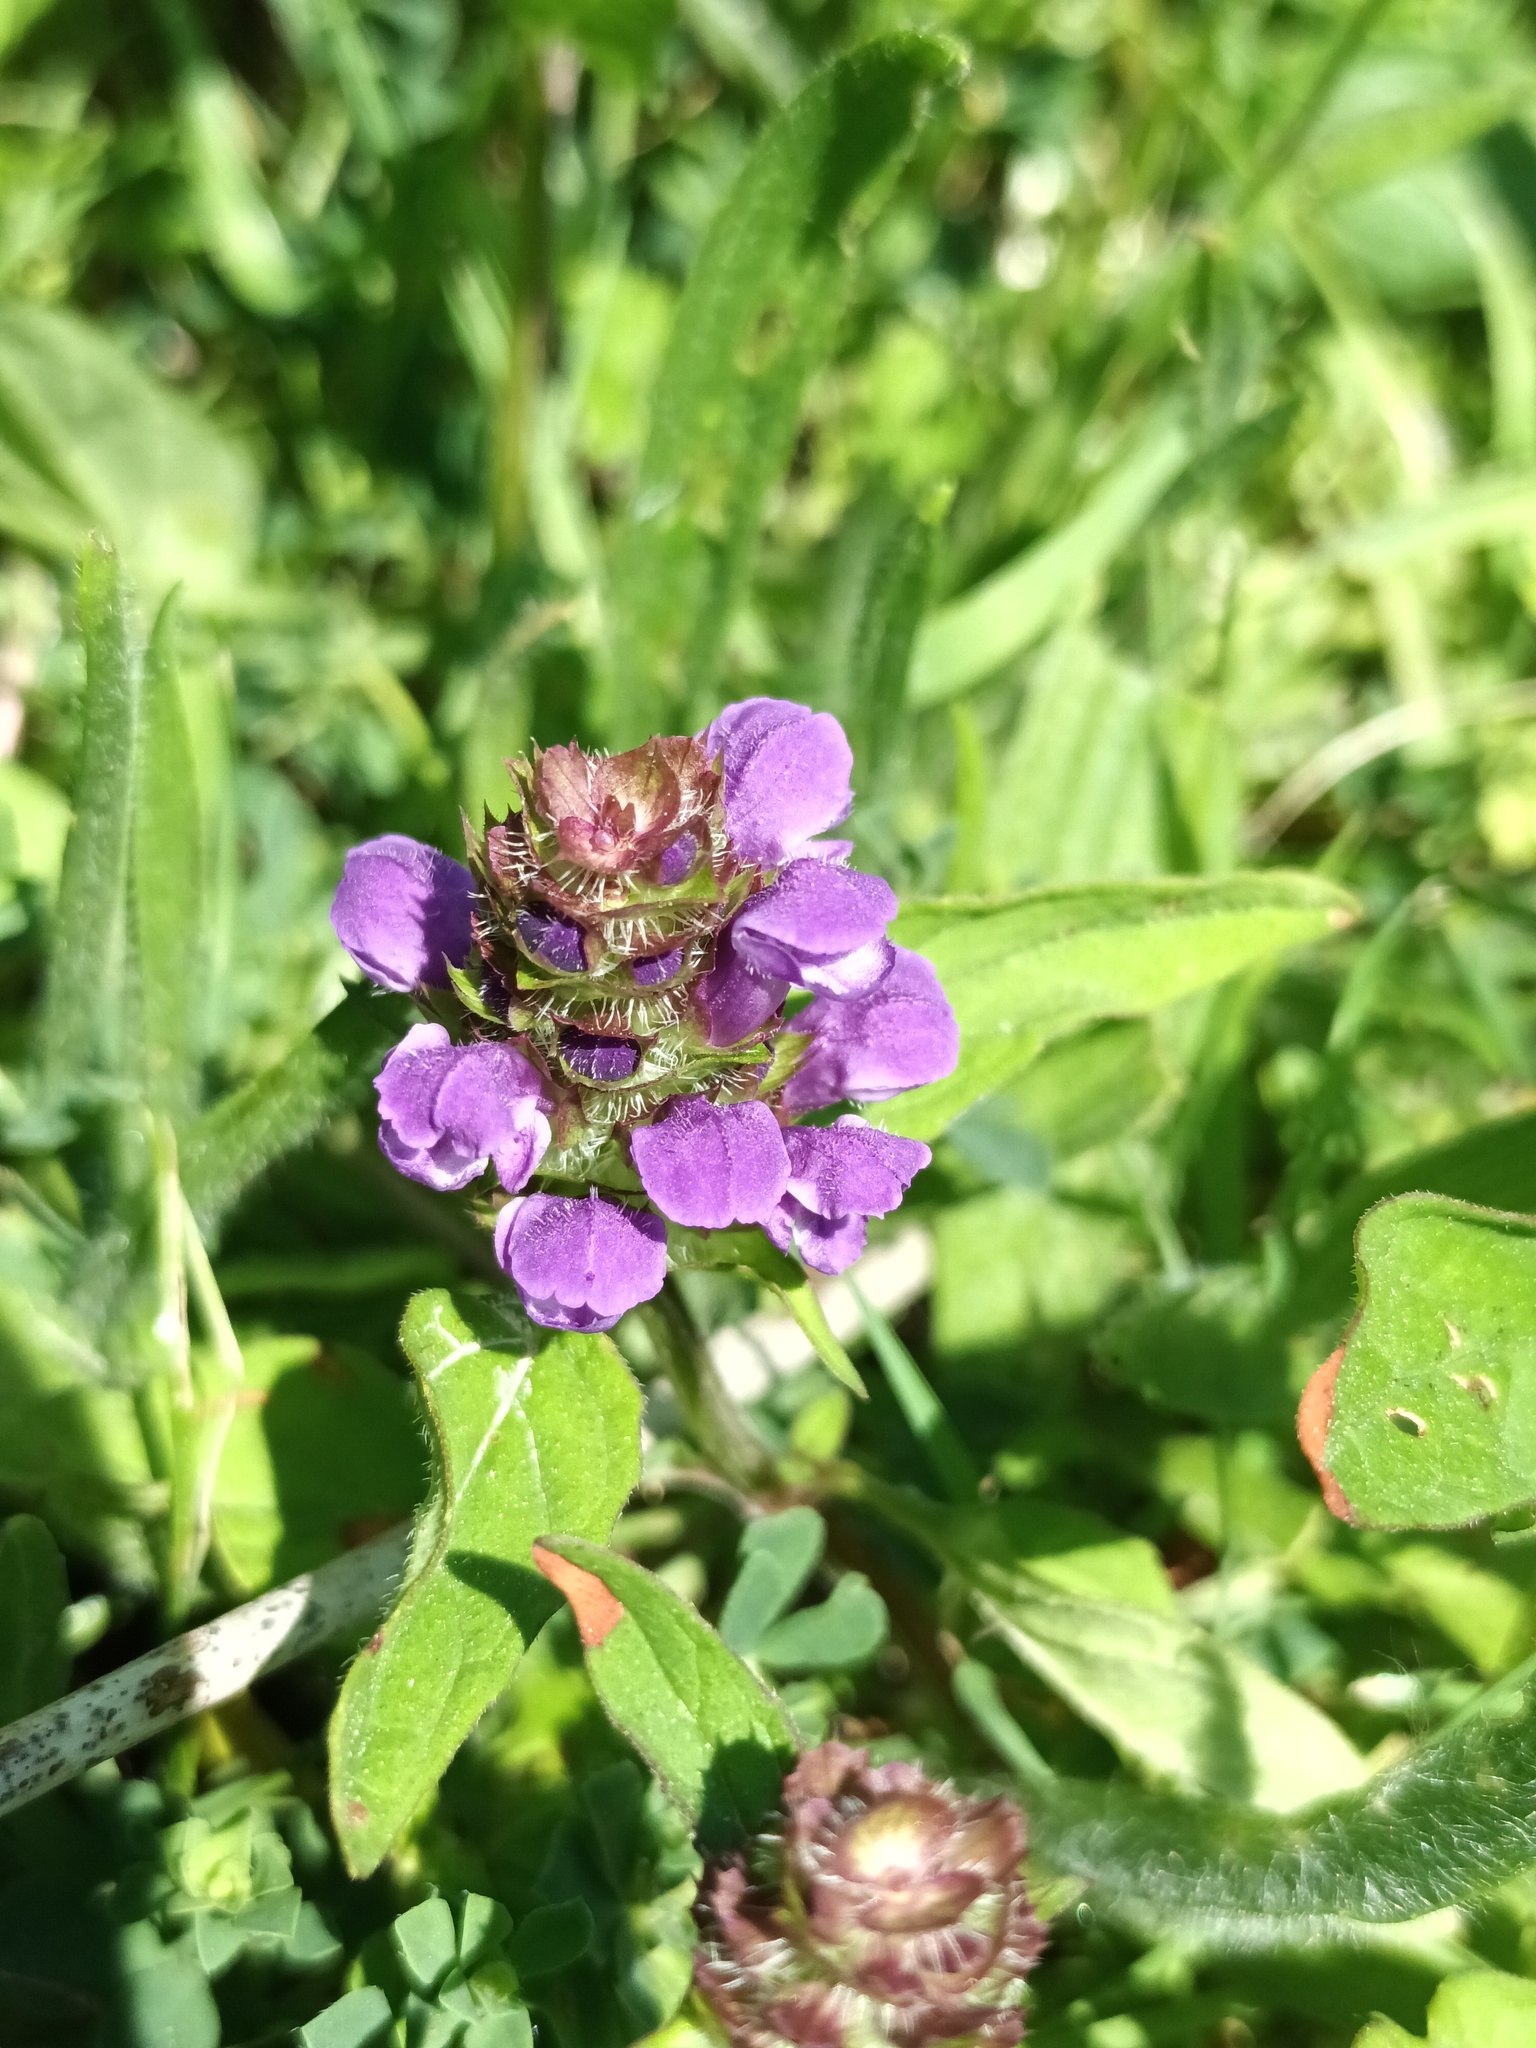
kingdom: Plantae
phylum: Tracheophyta
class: Magnoliopsida
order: Lamiales
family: Lamiaceae
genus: Prunella
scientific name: Prunella vulgaris
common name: Heal-all
